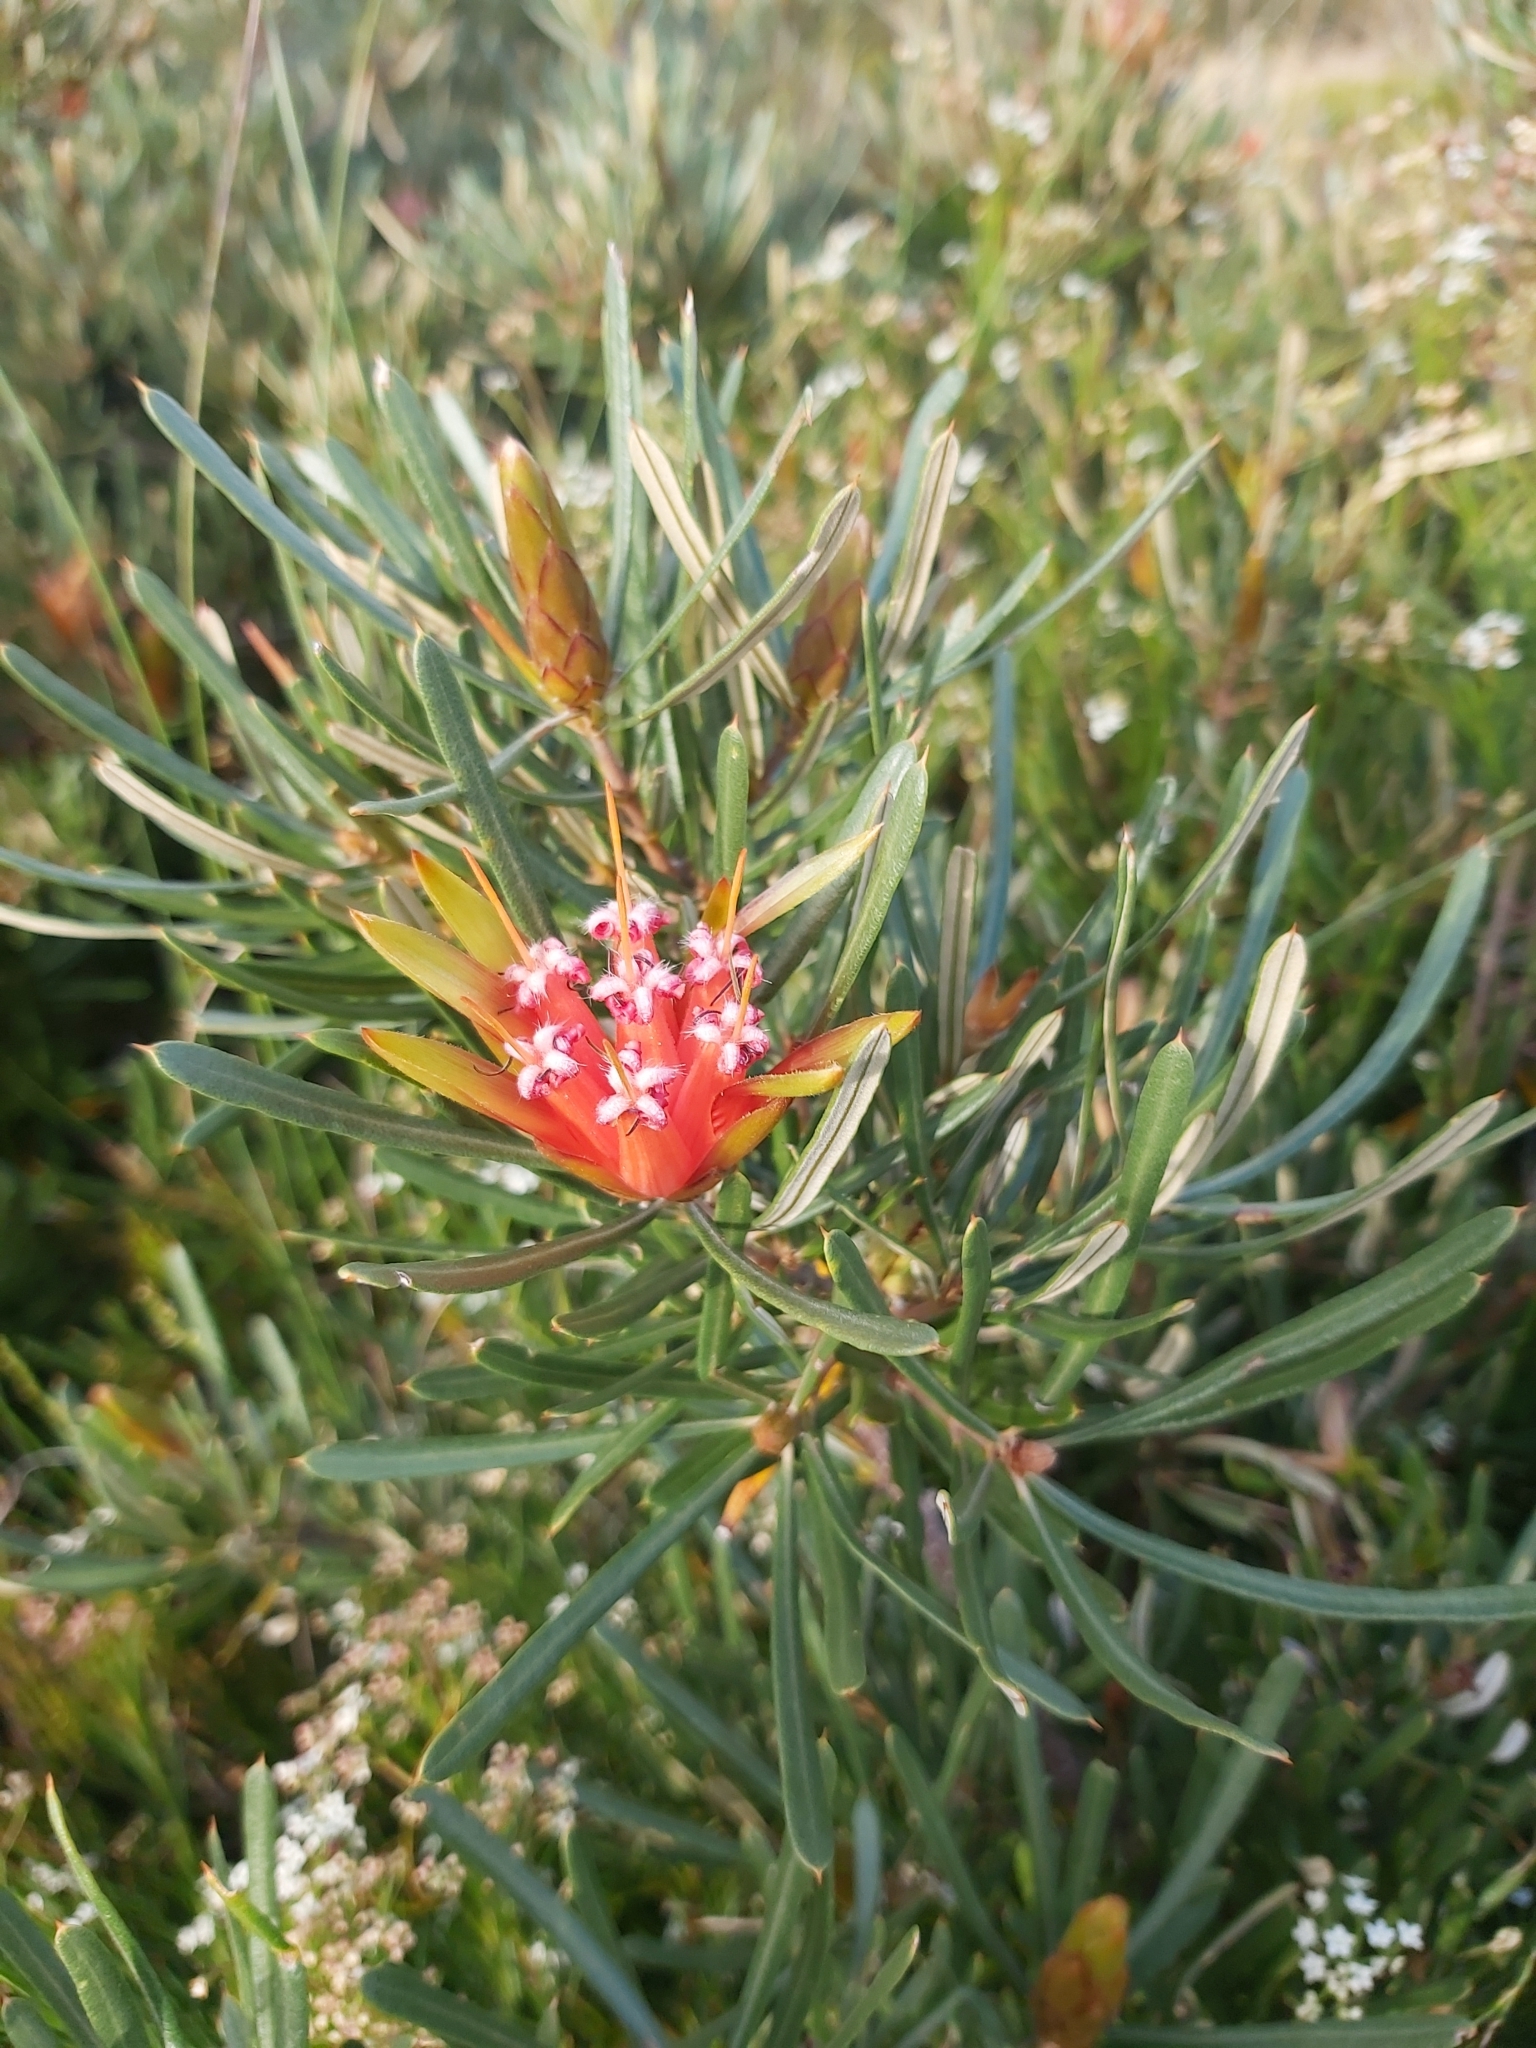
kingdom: Plantae
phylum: Tracheophyta
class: Magnoliopsida
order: Proteales
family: Proteaceae
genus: Lambertia
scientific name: Lambertia formosa
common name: Mountain-devil
